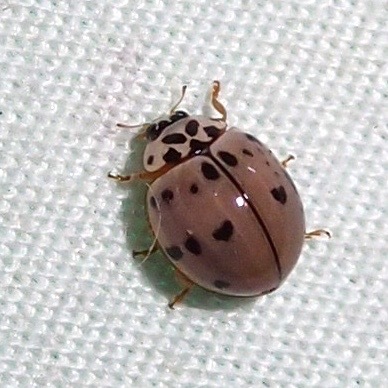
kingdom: Animalia
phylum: Arthropoda
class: Insecta
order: Coleoptera
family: Coccinellidae
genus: Olla
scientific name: Olla v-nigrum
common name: Ashy gray lady beetle
